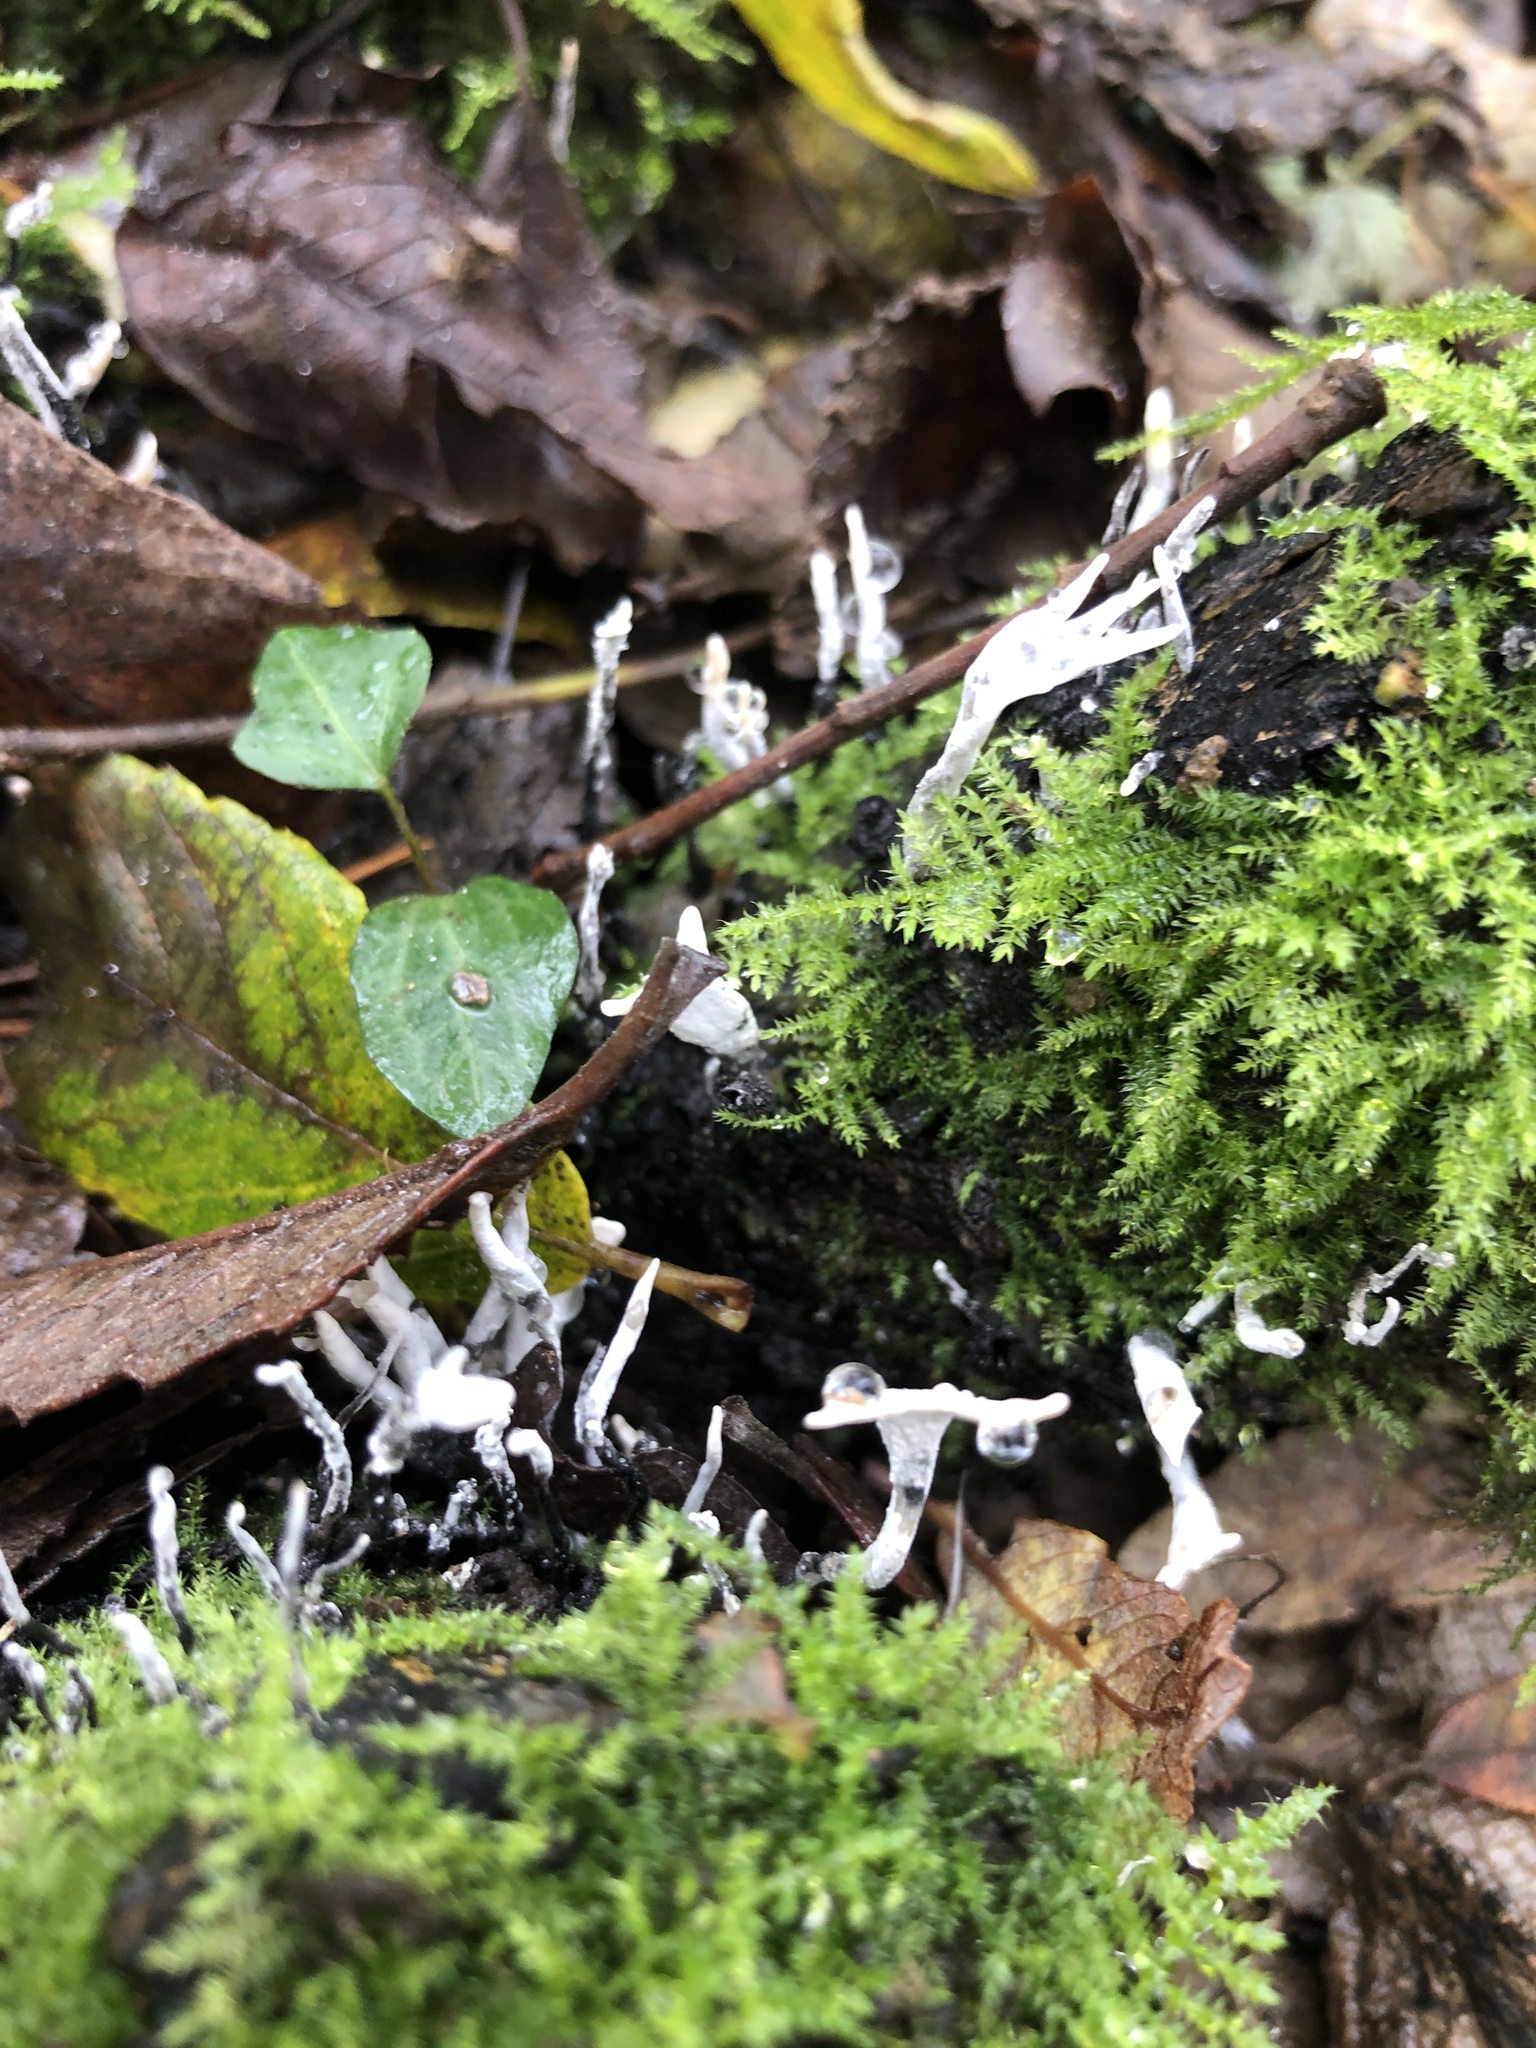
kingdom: Fungi
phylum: Ascomycota
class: Sordariomycetes
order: Xylariales
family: Xylariaceae
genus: Xylaria
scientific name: Xylaria hypoxylon
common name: Candle-snuff fungus
